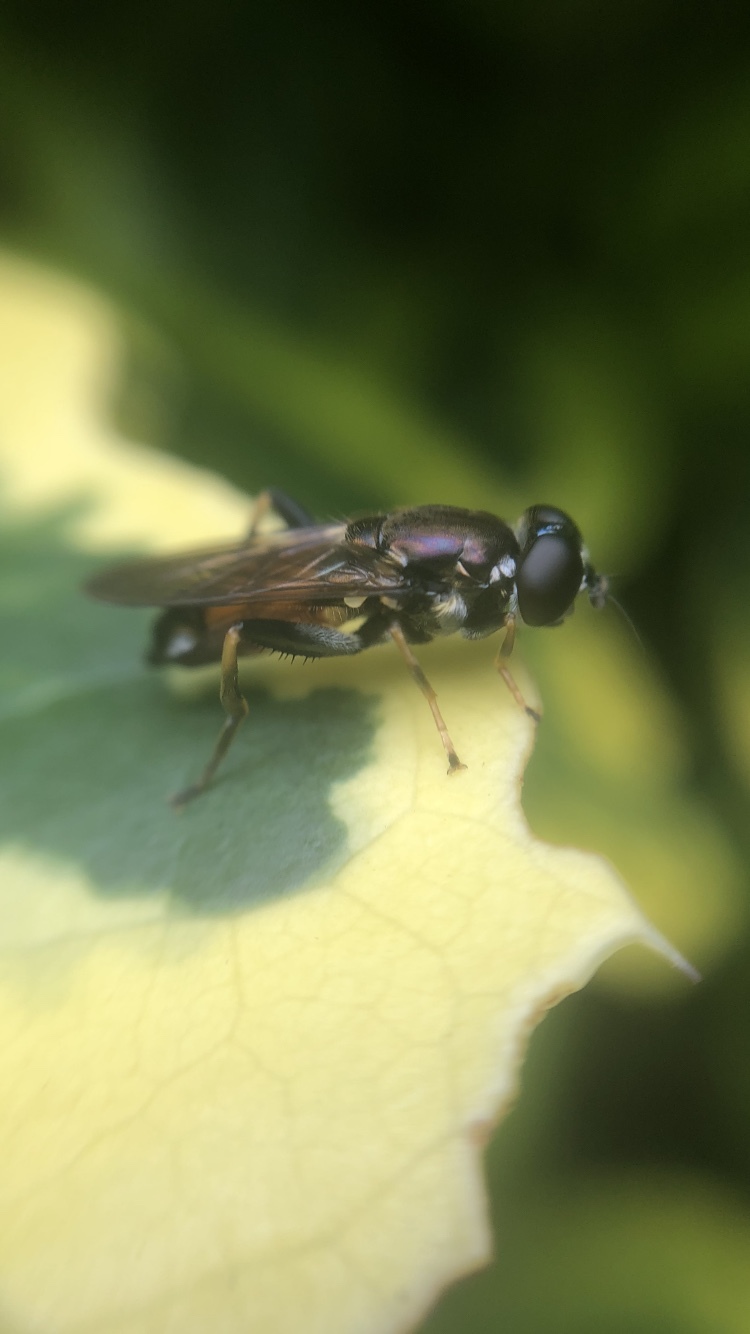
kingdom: Animalia
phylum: Arthropoda
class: Insecta
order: Diptera
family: Syrphidae
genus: Xylota
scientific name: Xylota segnis
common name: Brown-toed forest fly
